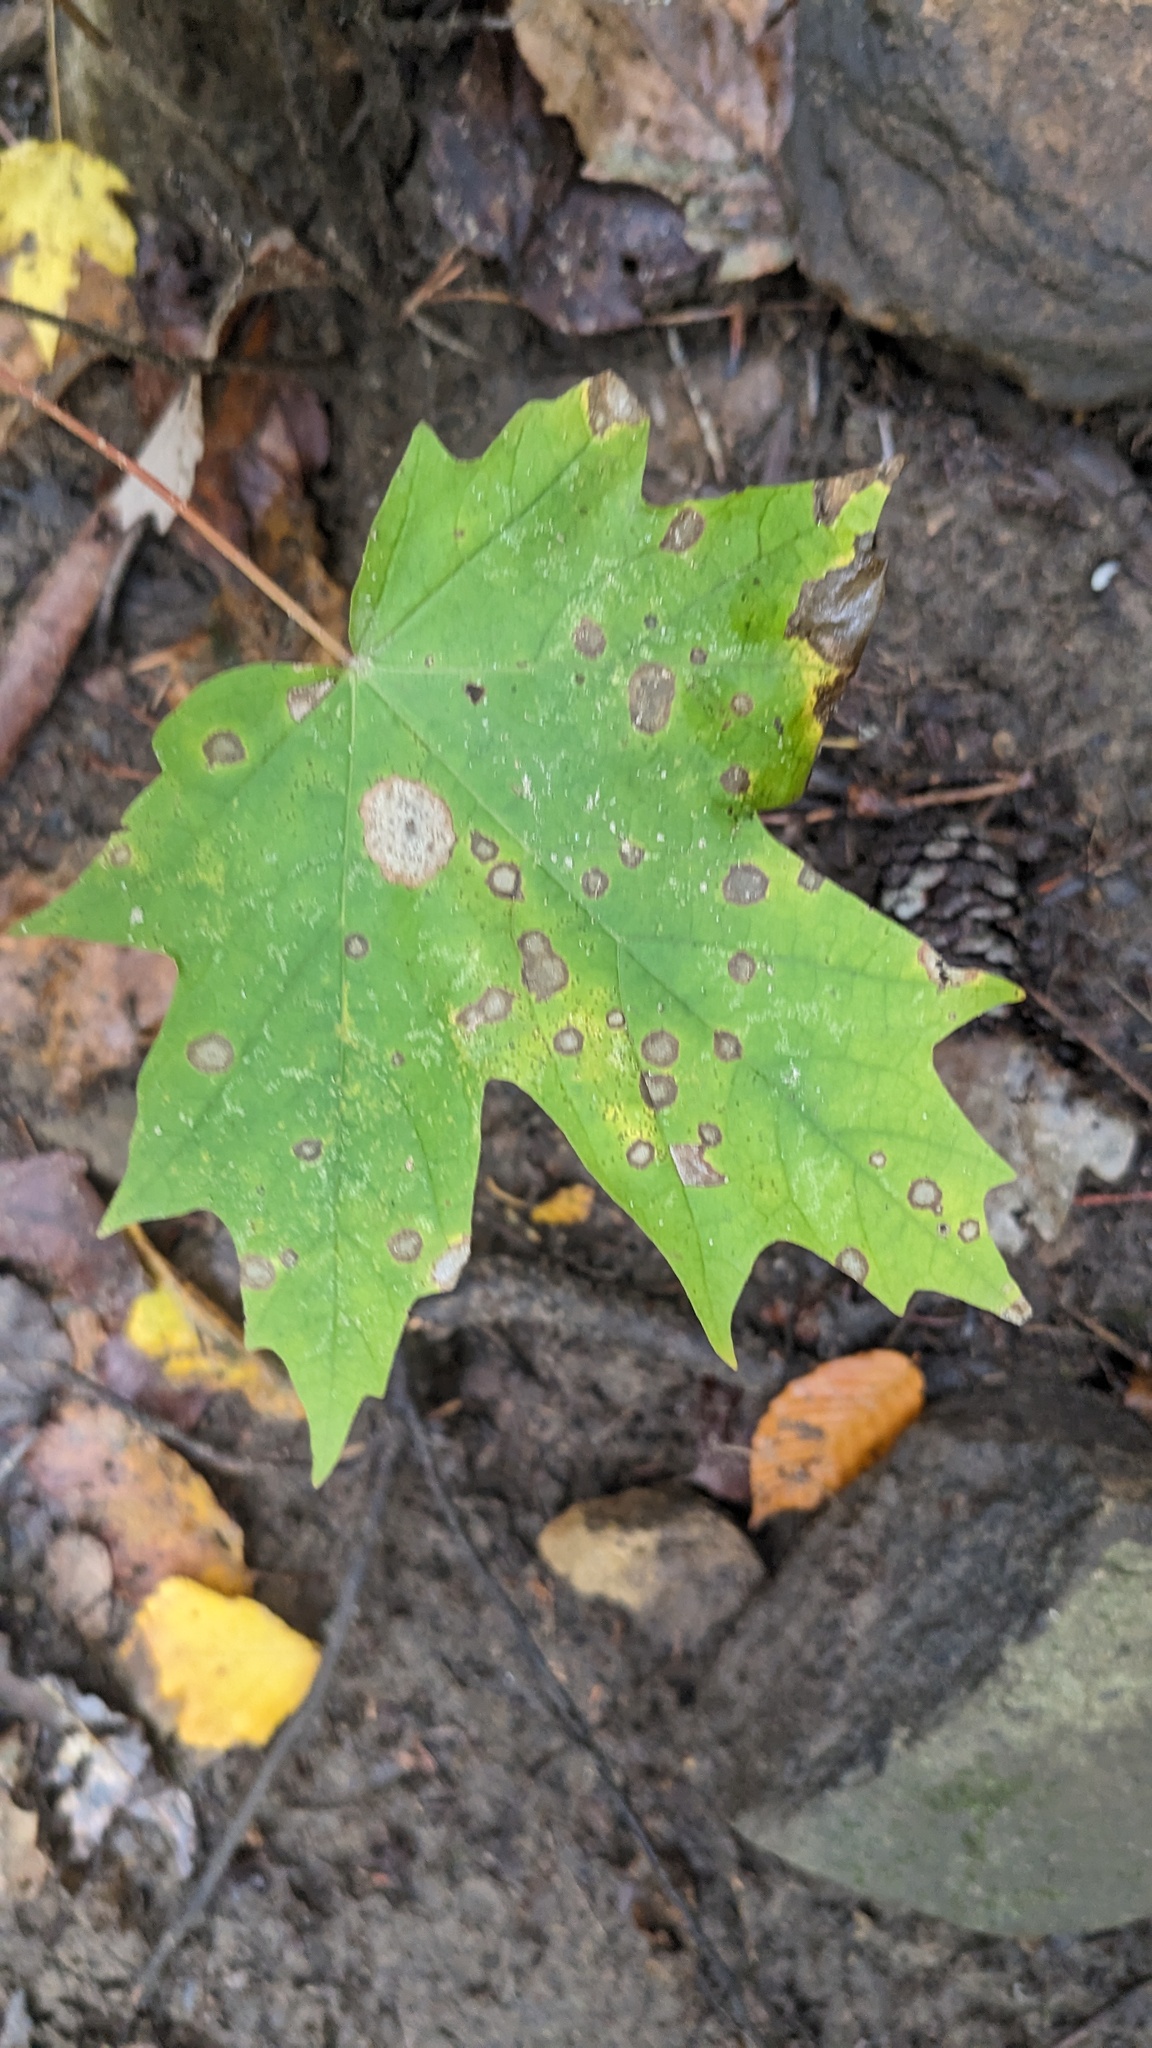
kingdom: Plantae
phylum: Tracheophyta
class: Magnoliopsida
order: Sapindales
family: Sapindaceae
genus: Acer
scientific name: Acer saccharum
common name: Sugar maple
